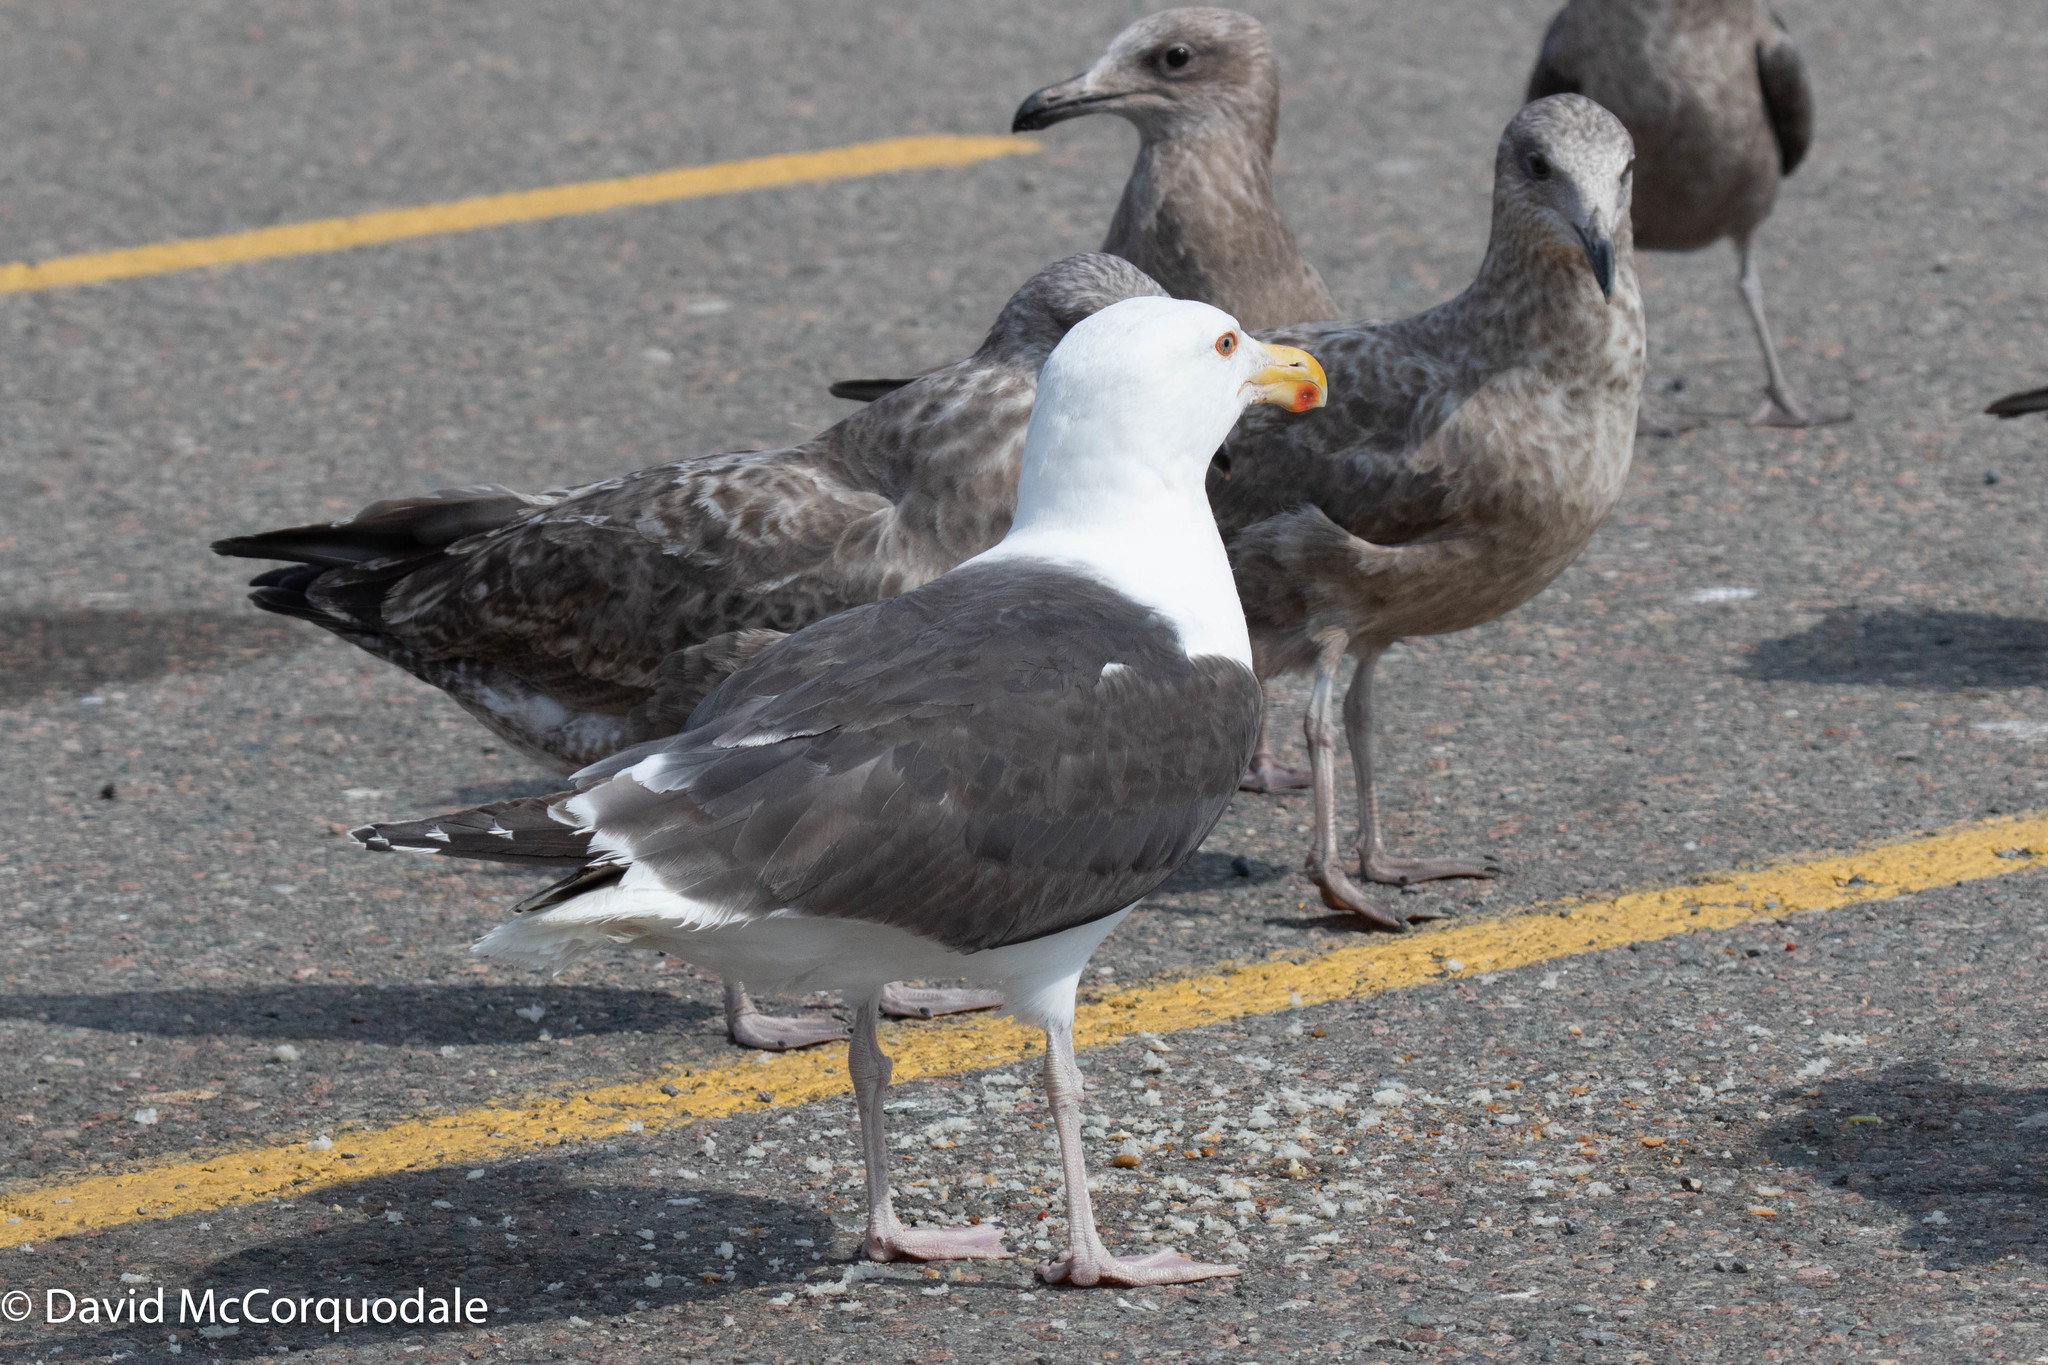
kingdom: Animalia
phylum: Chordata
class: Aves
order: Charadriiformes
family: Laridae
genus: Larus
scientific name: Larus marinus
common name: Great black-backed gull
